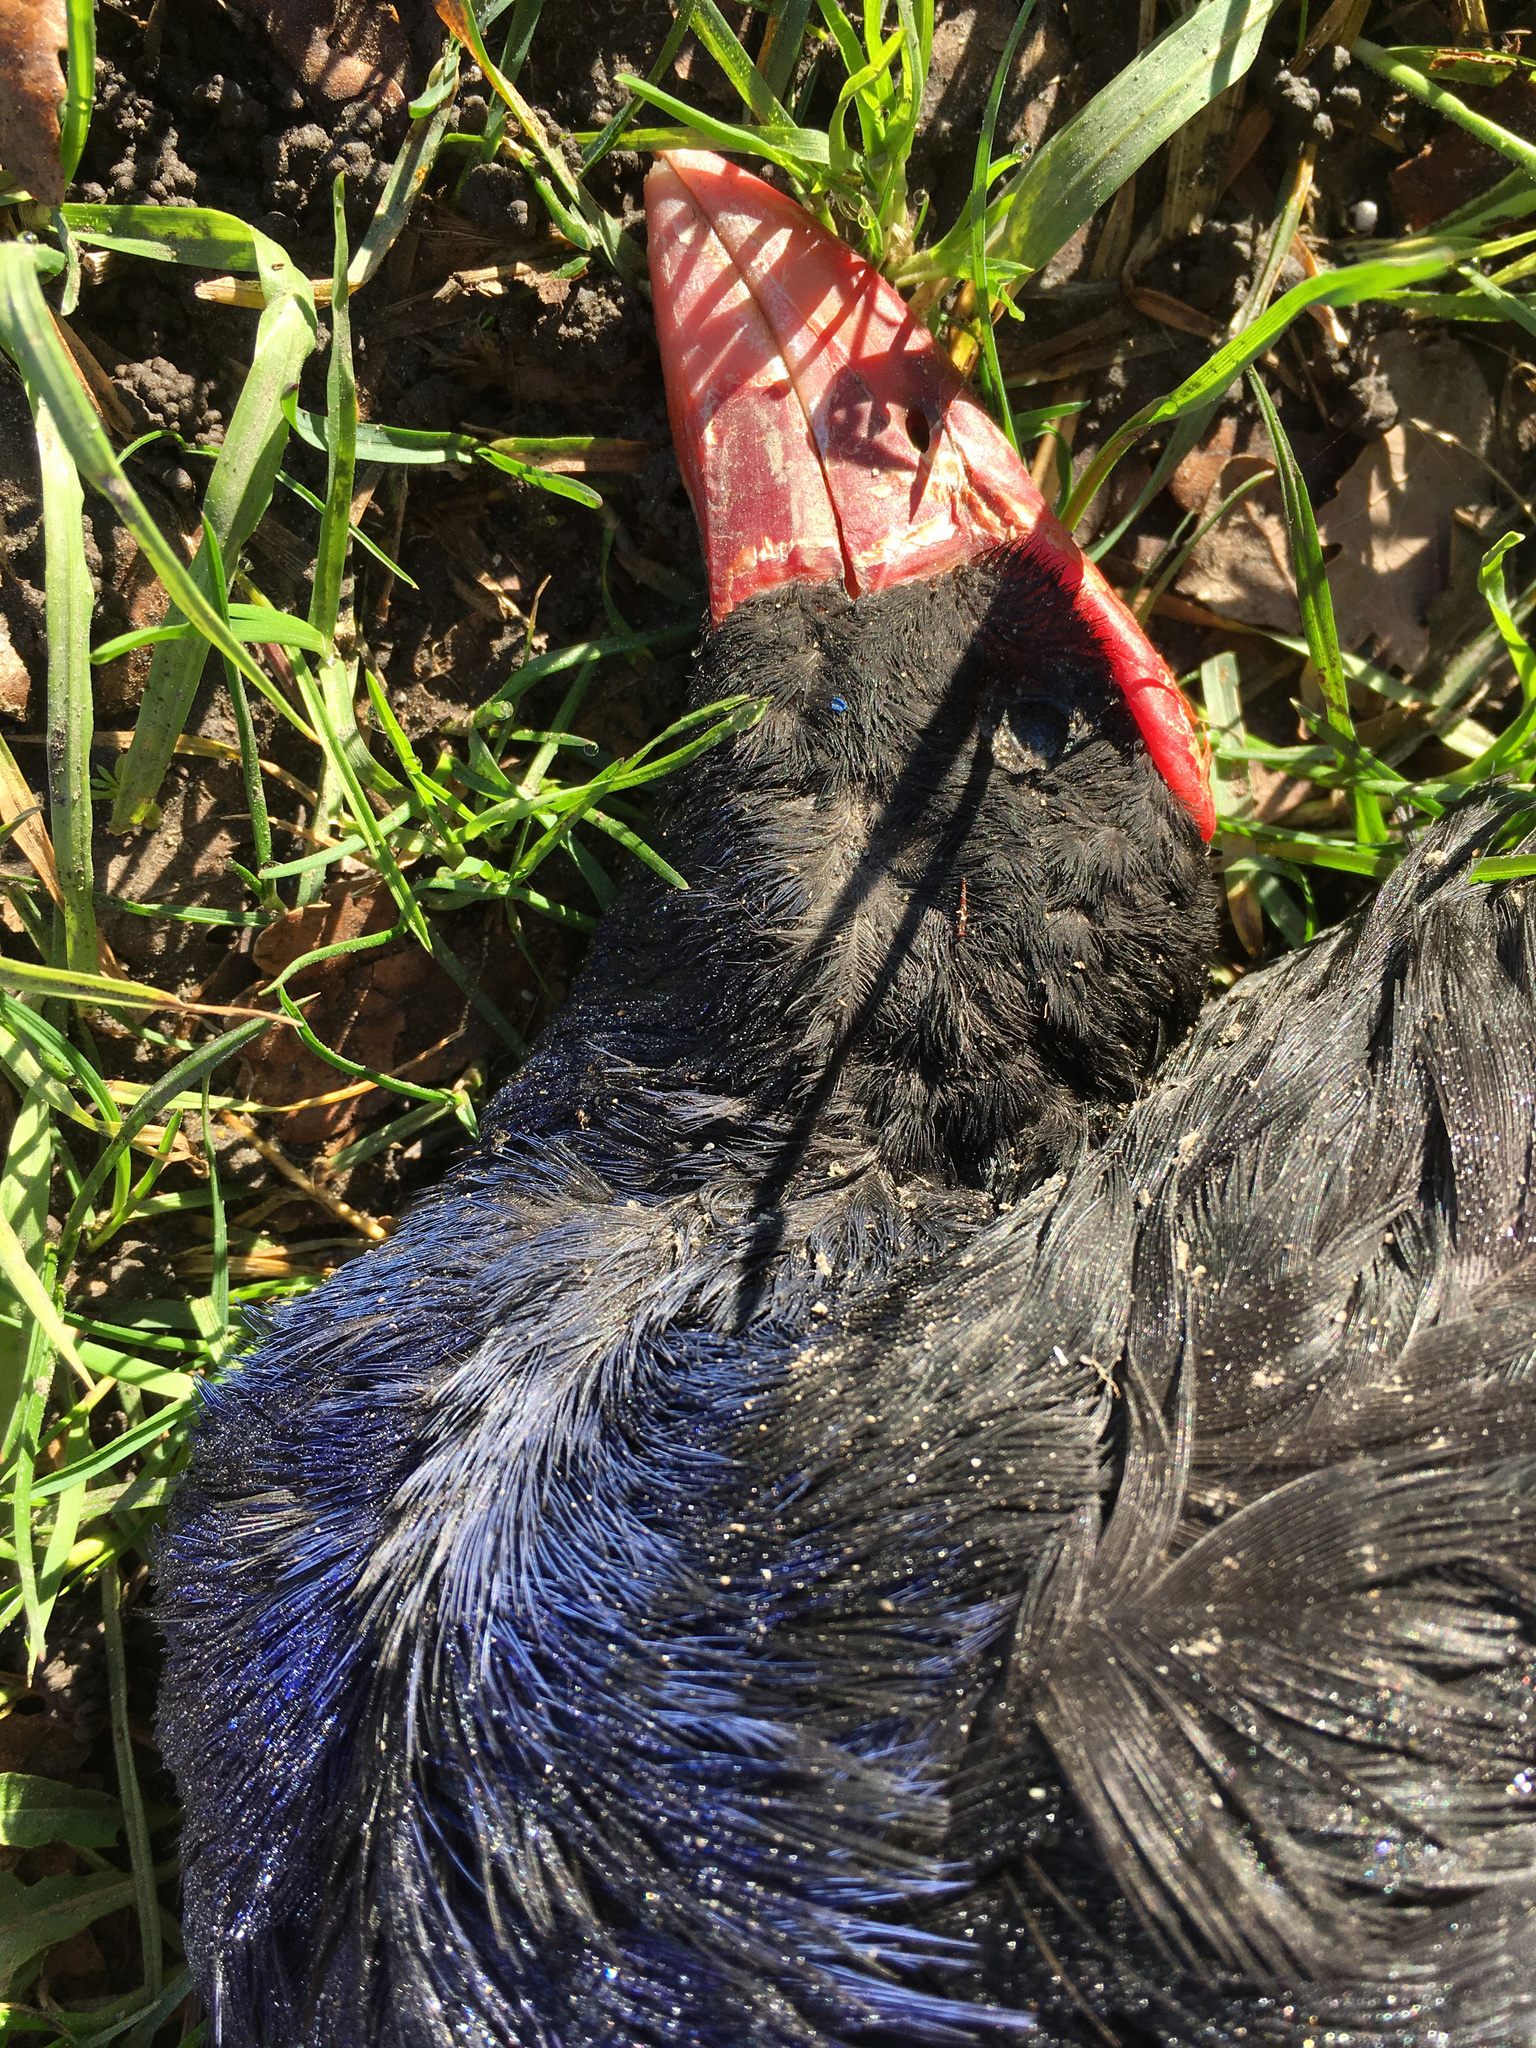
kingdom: Animalia
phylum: Chordata
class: Aves
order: Gruiformes
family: Rallidae
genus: Porphyrio
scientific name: Porphyrio melanotus
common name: Australasian swamphen
